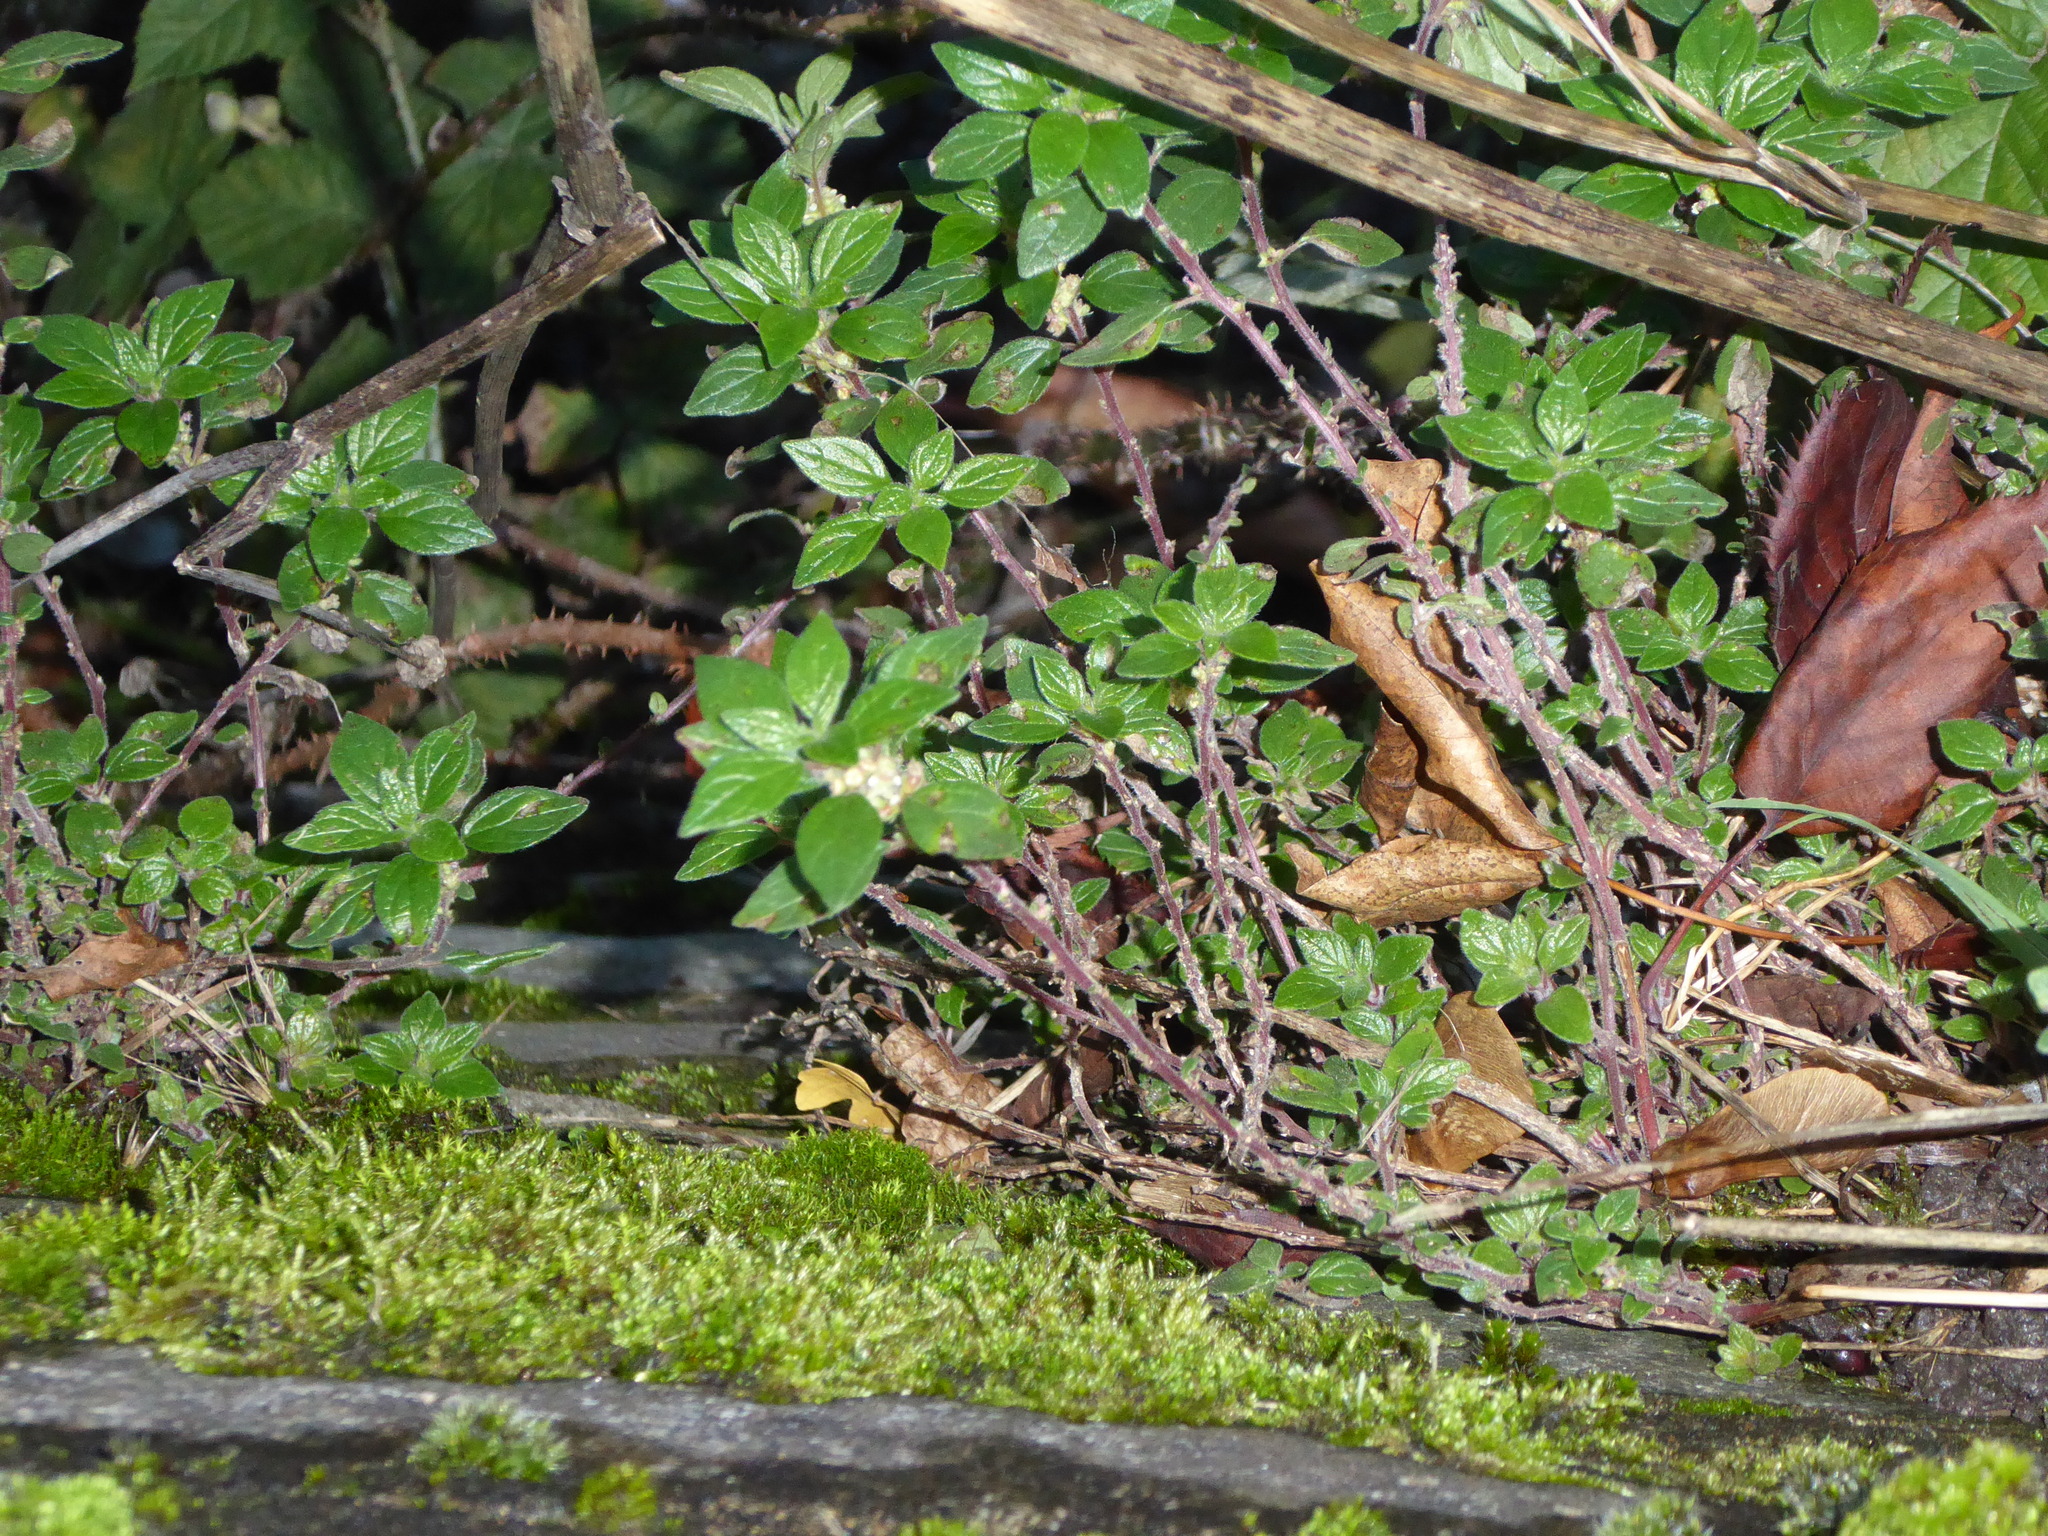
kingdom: Plantae
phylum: Tracheophyta
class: Magnoliopsida
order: Rosales
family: Urticaceae
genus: Parietaria
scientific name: Parietaria judaica
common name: Pellitory-of-the-wall
